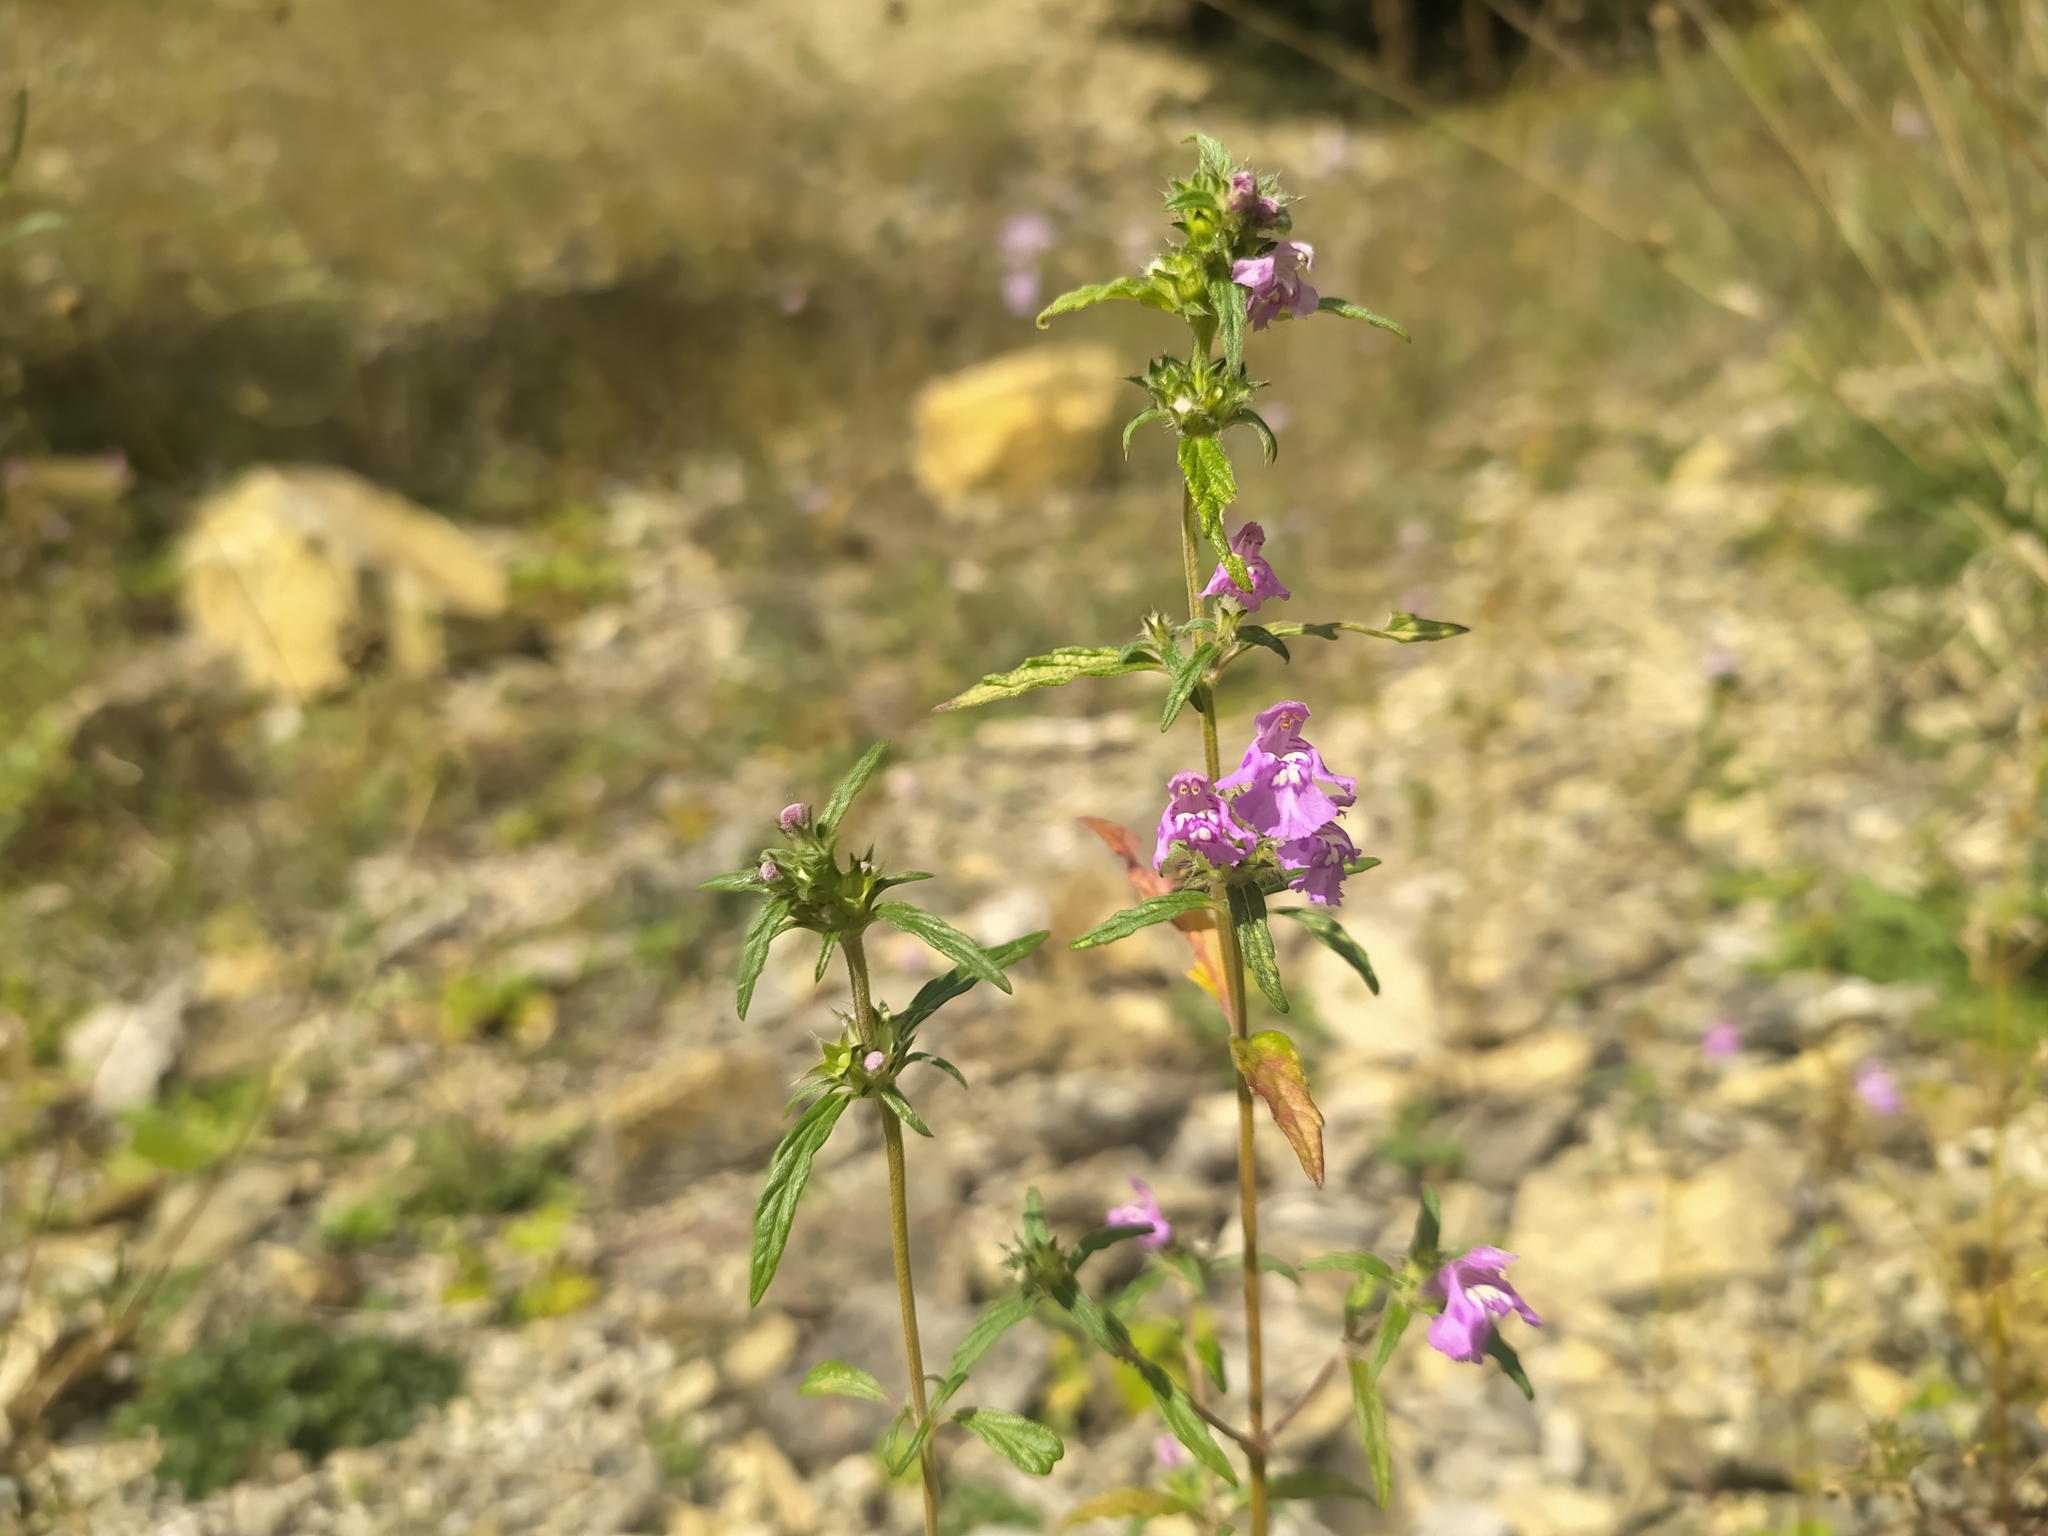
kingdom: Plantae
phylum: Tracheophyta
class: Magnoliopsida
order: Lamiales
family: Lamiaceae
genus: Galeopsis
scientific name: Galeopsis angustifolia
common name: Red hemp-nettle
